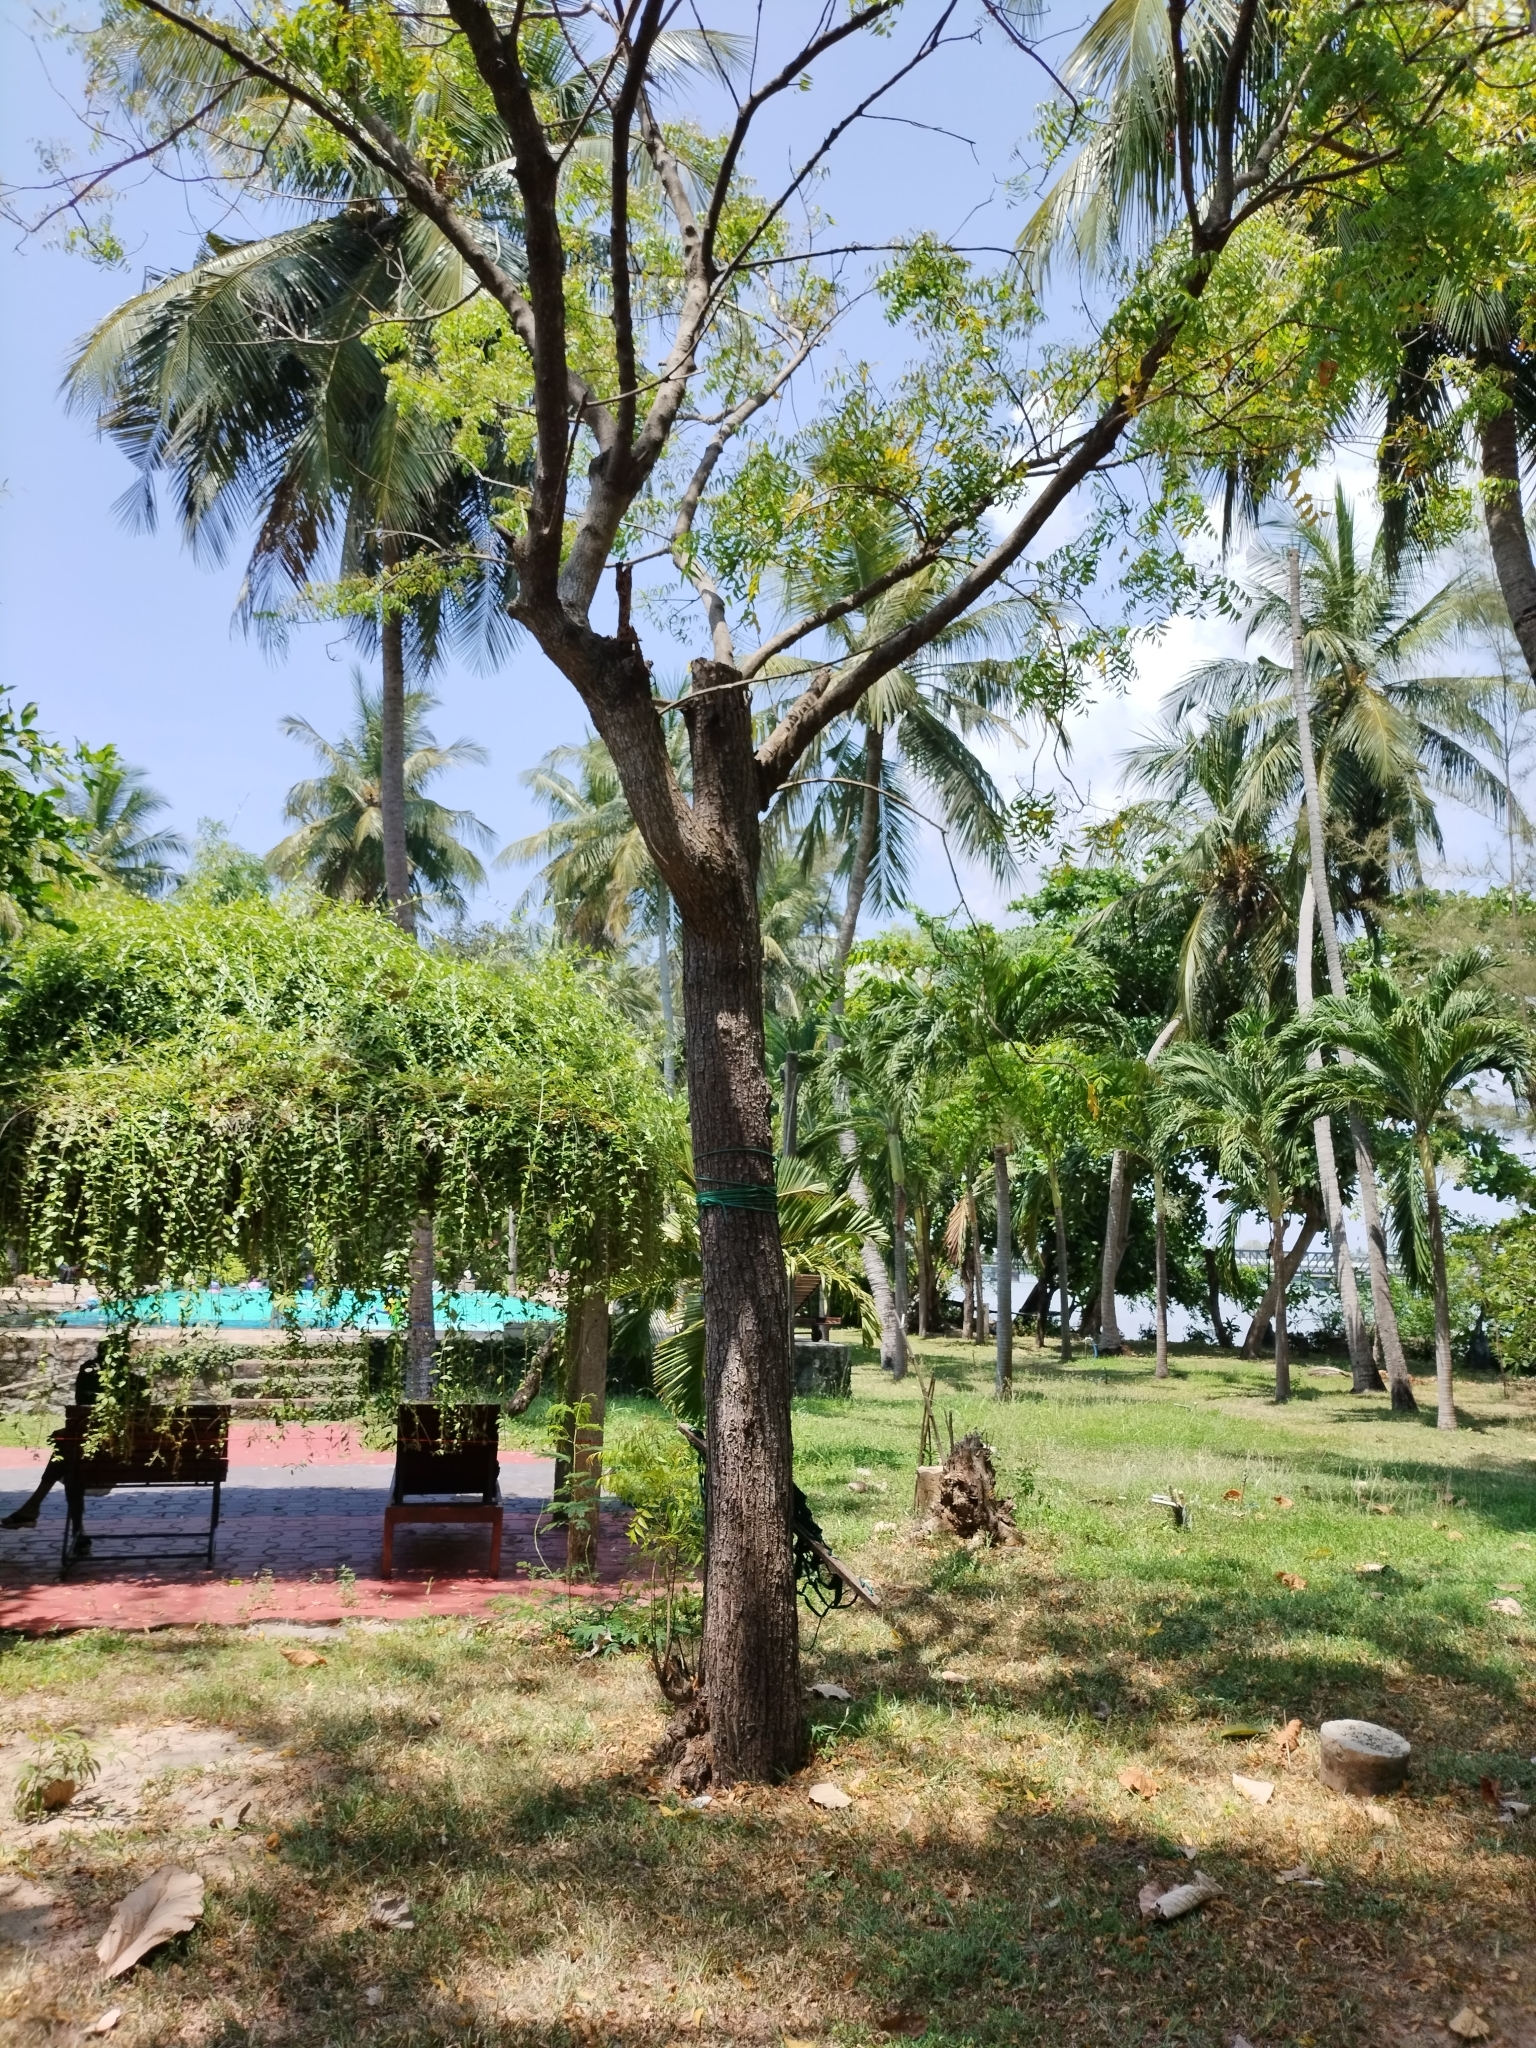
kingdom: Plantae
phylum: Tracheophyta
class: Magnoliopsida
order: Sapindales
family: Meliaceae
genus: Azadirachta
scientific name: Azadirachta indica
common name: Neem
